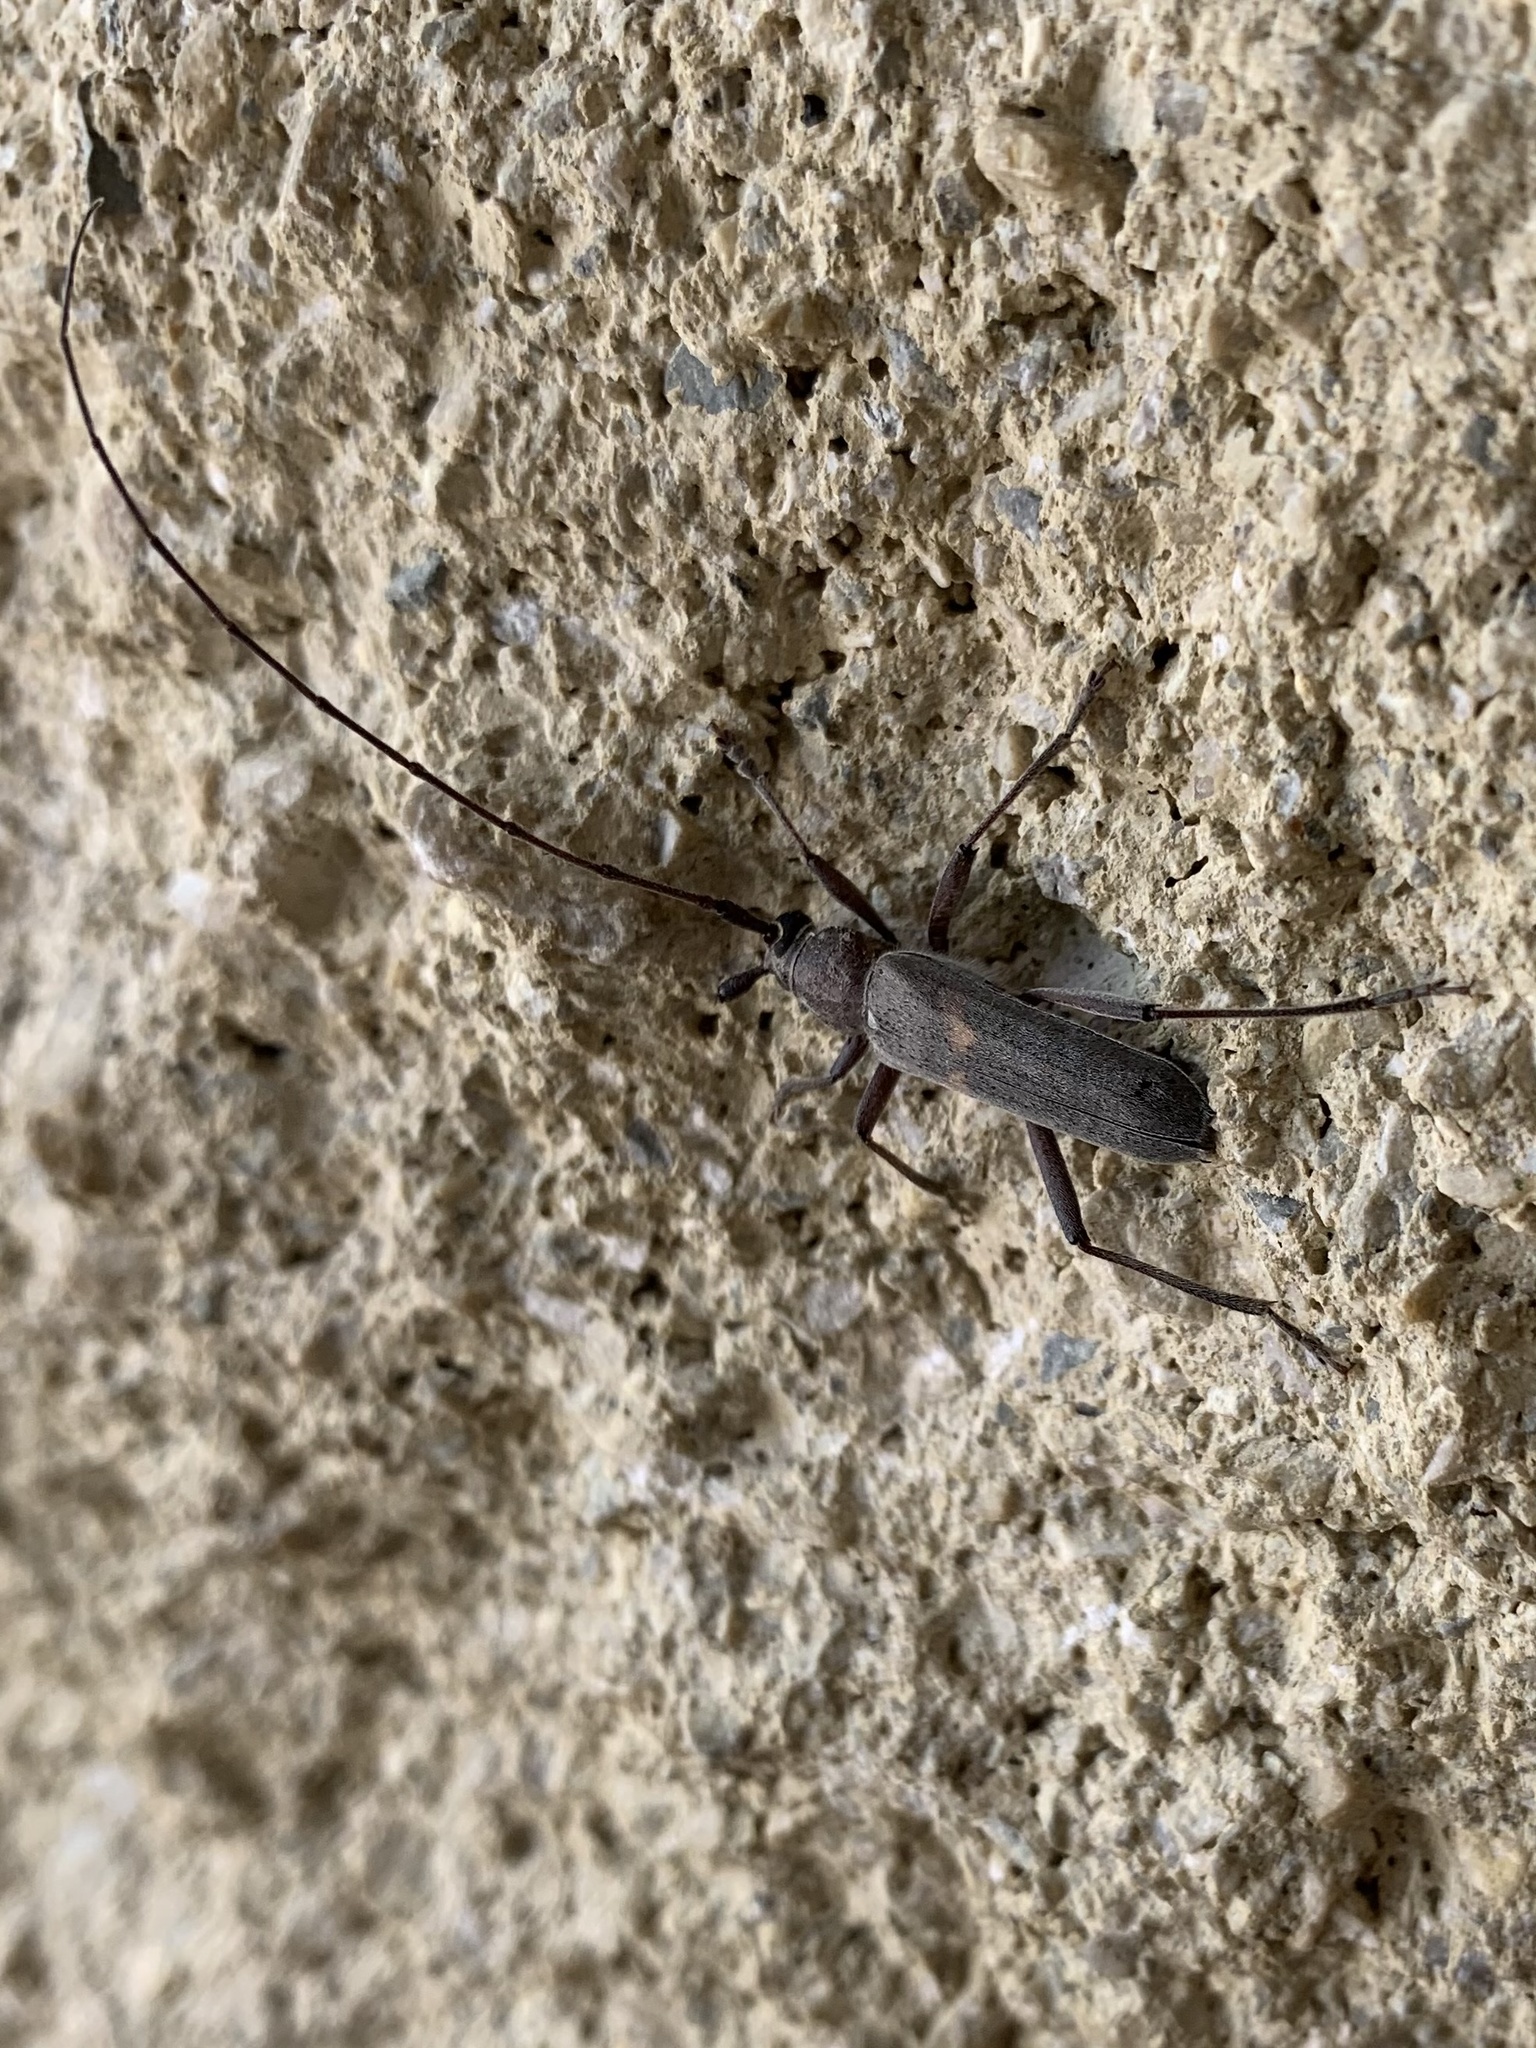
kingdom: Animalia
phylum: Arthropoda
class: Insecta
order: Coleoptera
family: Cerambycidae
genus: Knulliana
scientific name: Knulliana cincta
